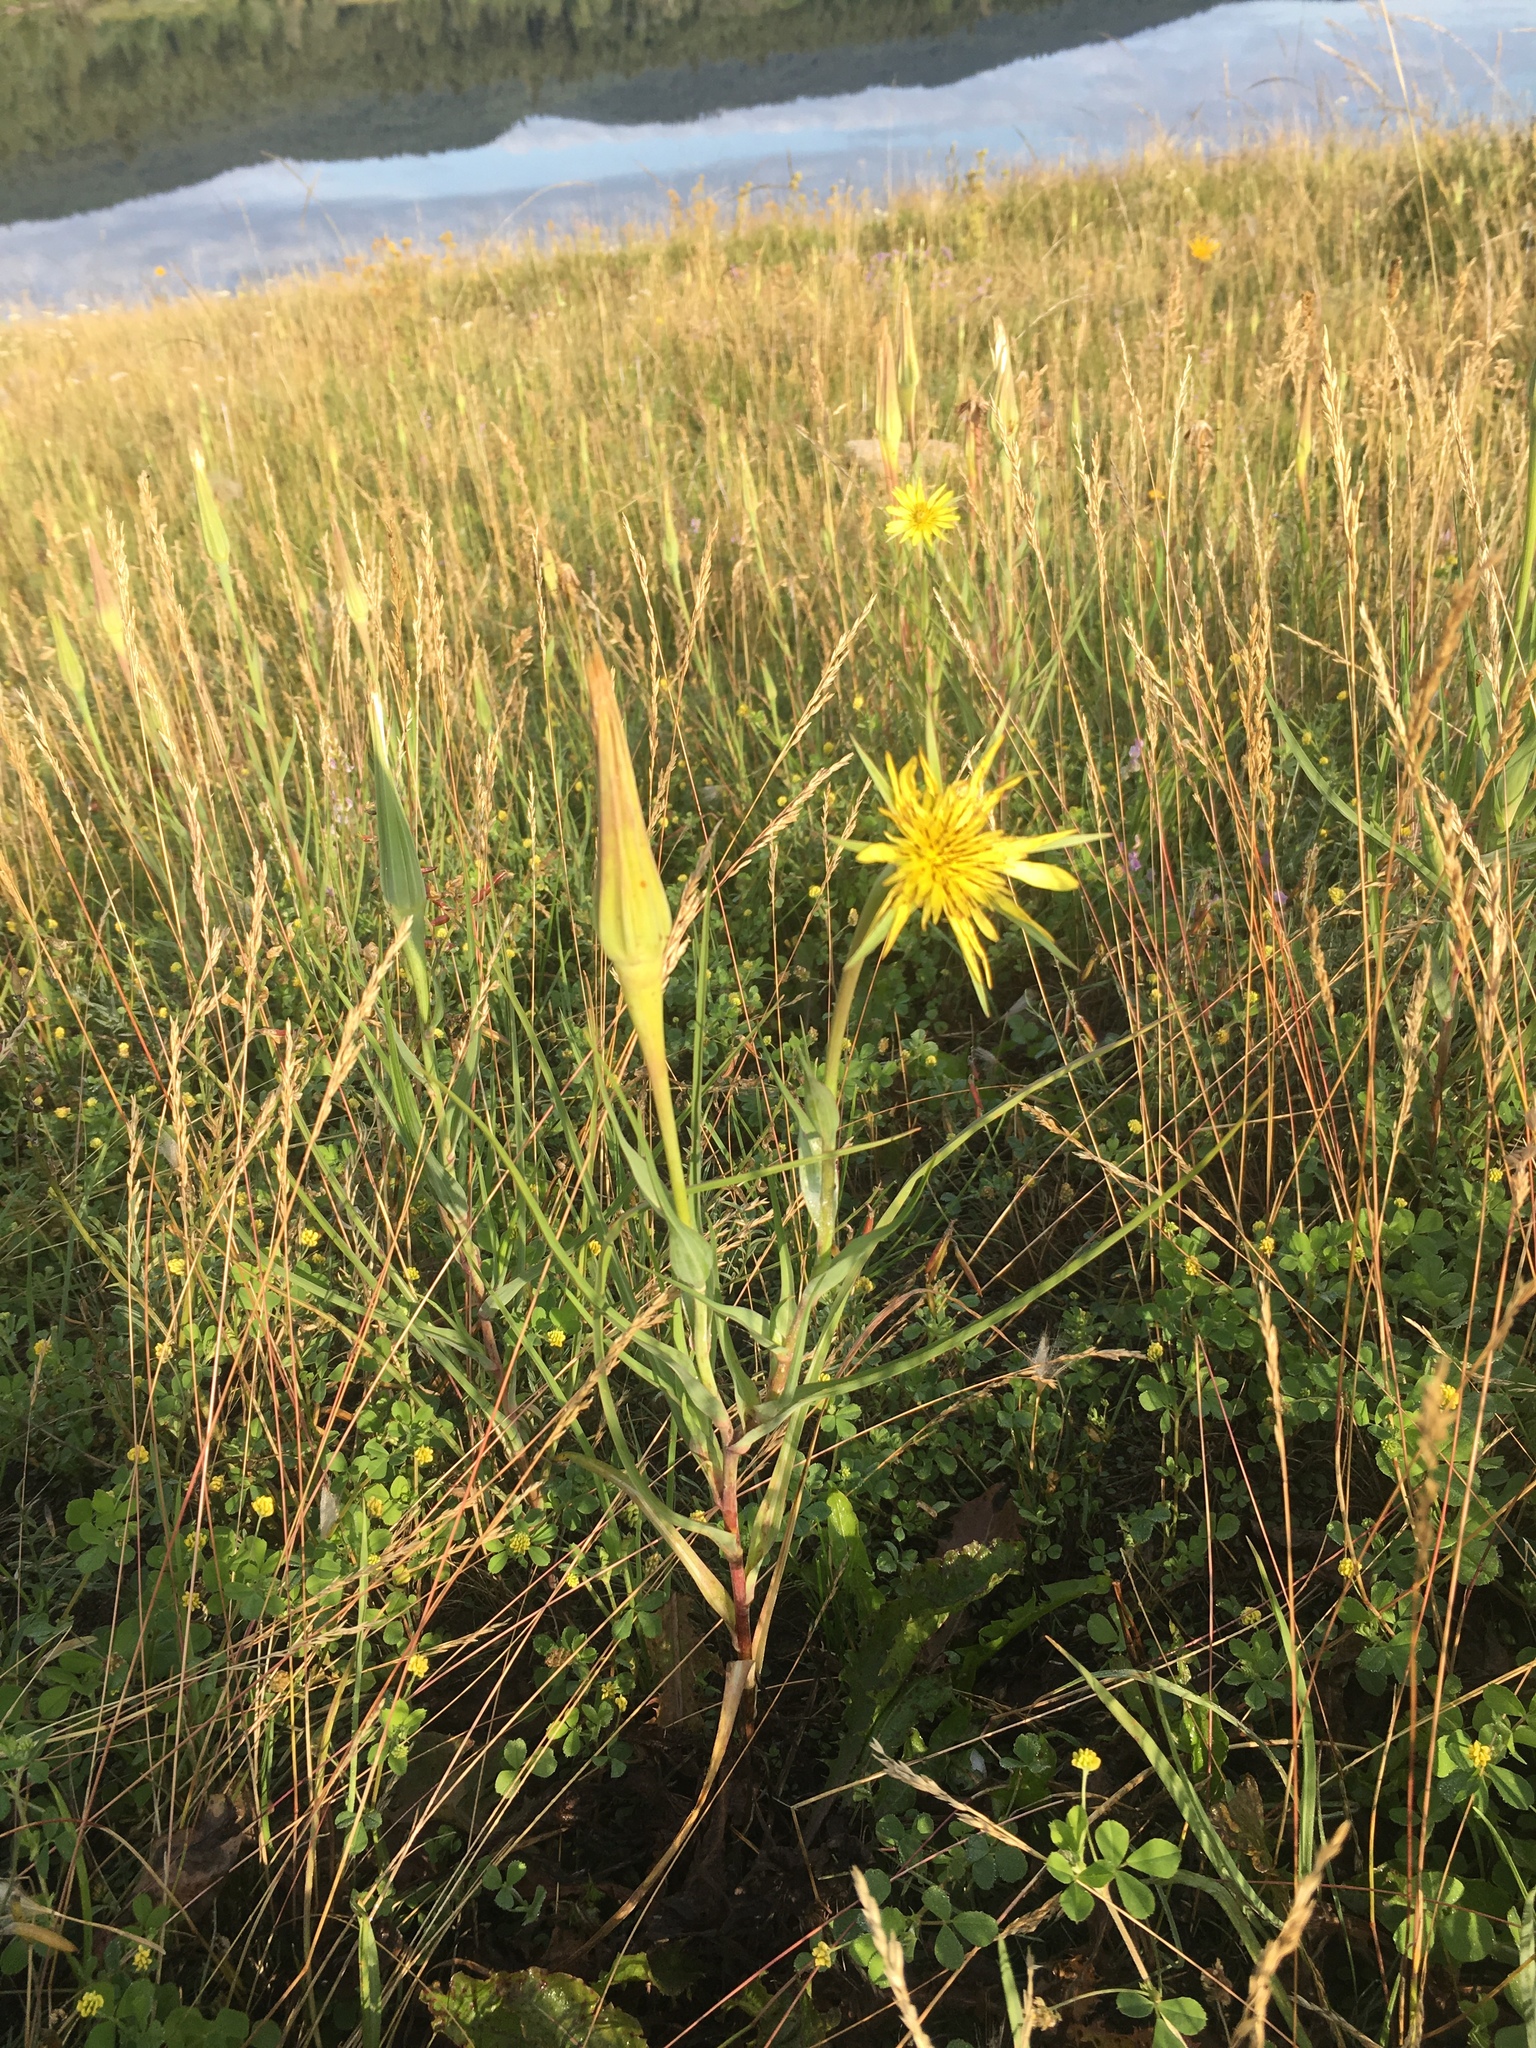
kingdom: Plantae
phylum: Tracheophyta
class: Magnoliopsida
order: Asterales
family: Asteraceae
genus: Tragopogon
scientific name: Tragopogon dubius
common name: Yellow salsify
